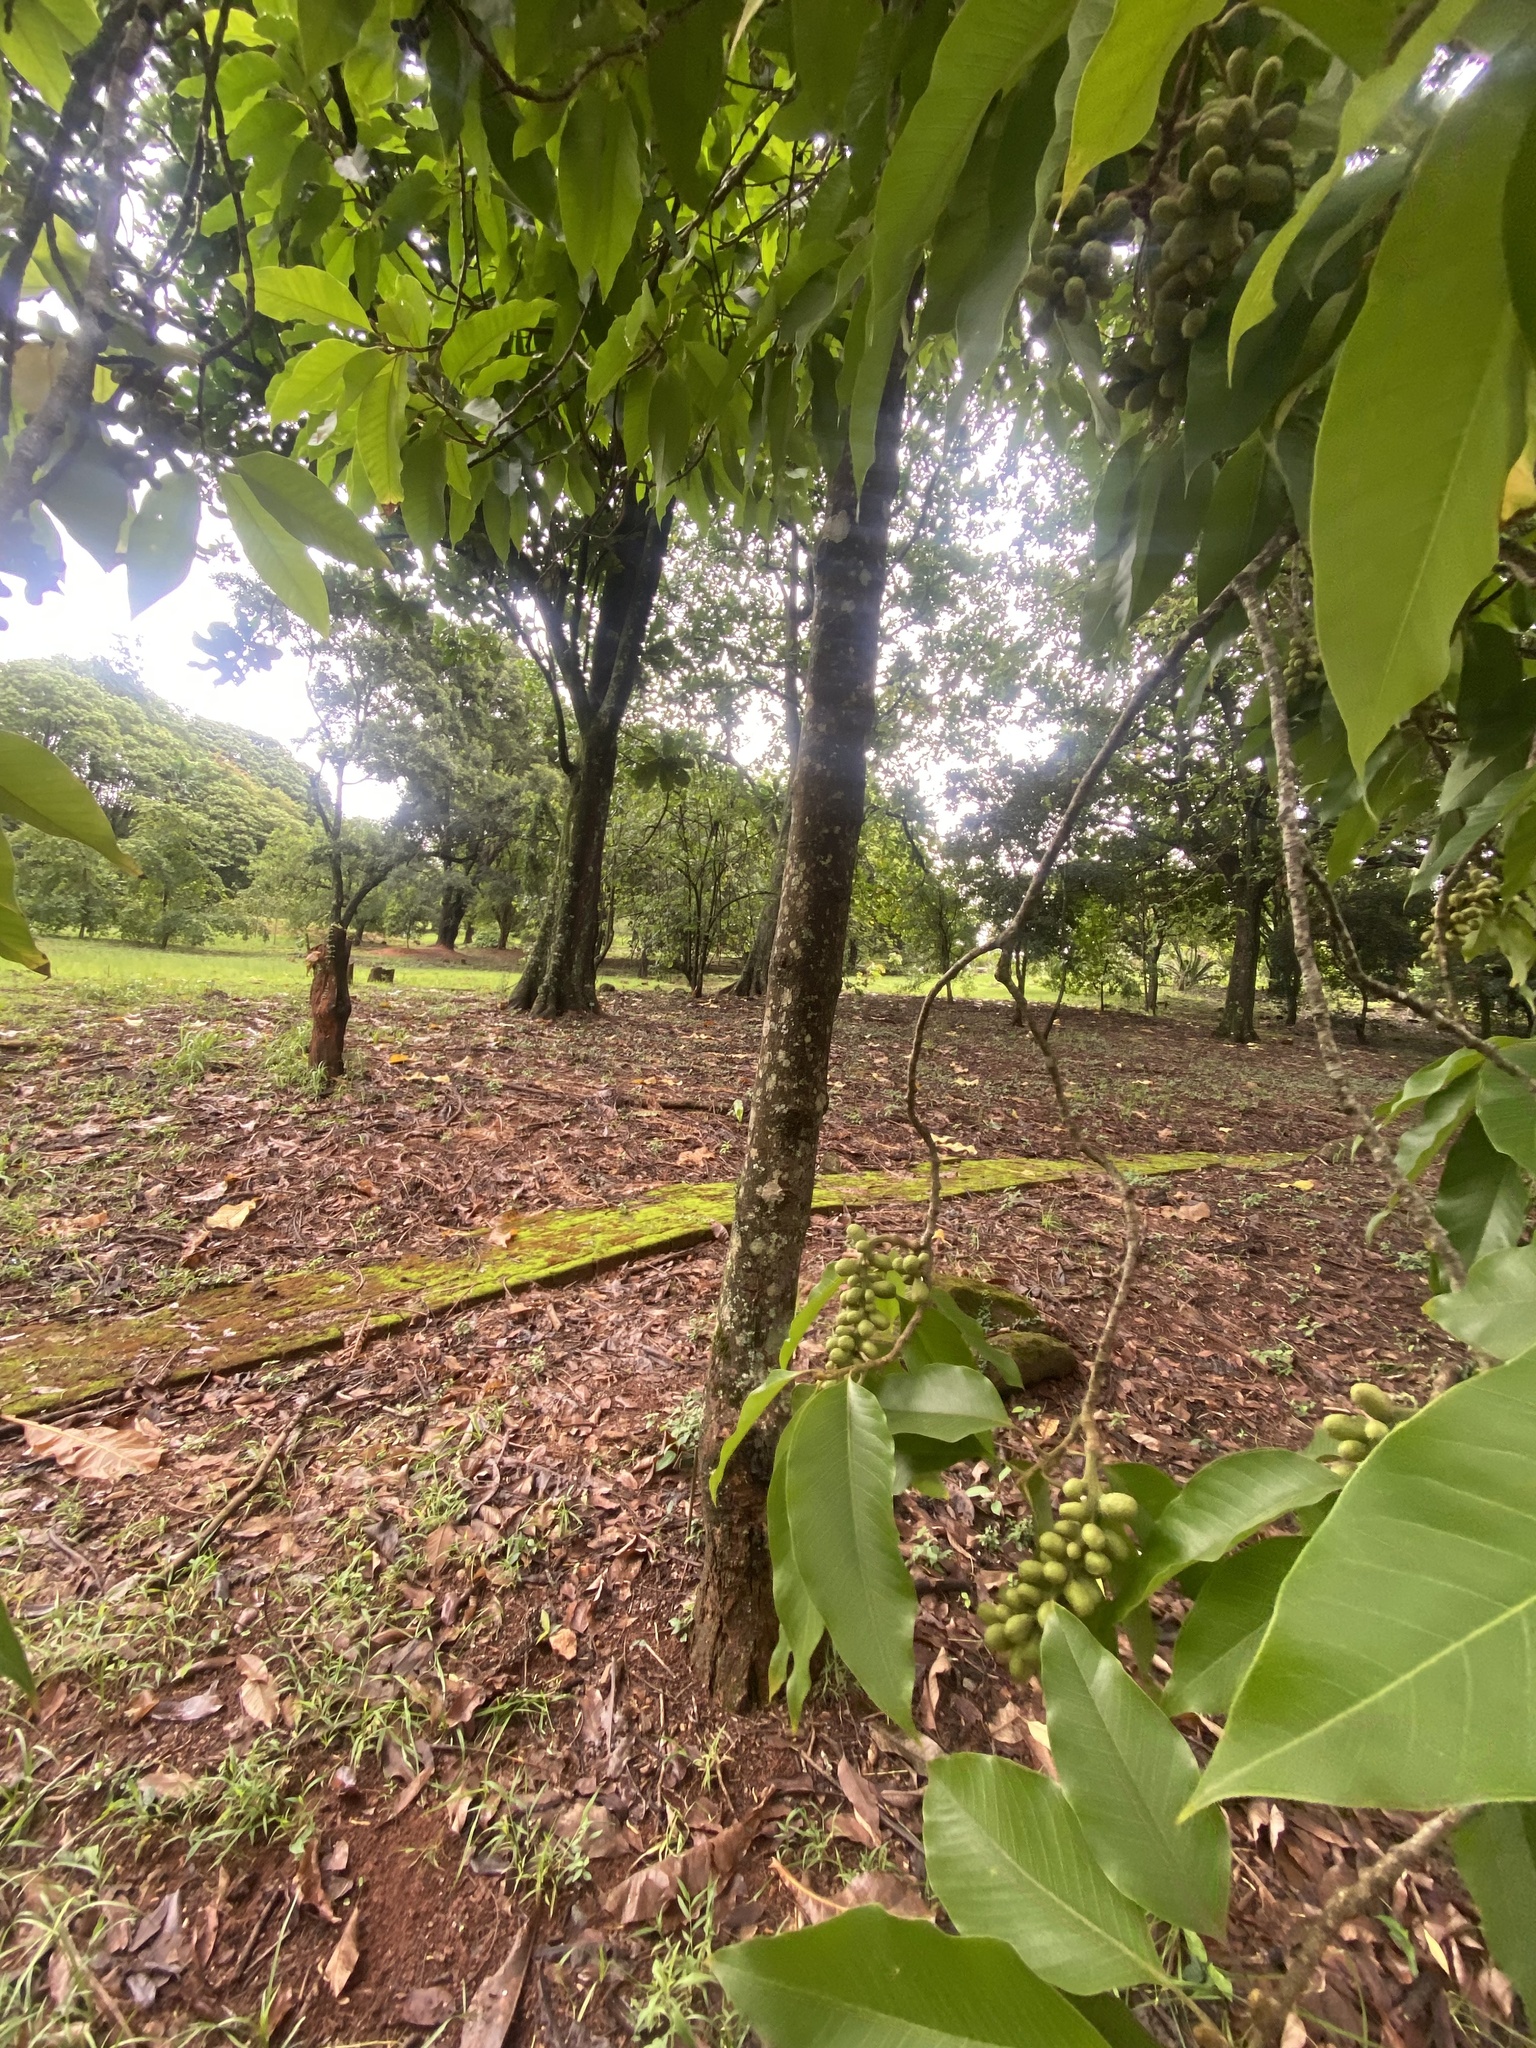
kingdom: Plantae
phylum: Tracheophyta
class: Magnoliopsida
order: Magnoliales
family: Magnoliaceae
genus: Magnolia
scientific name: Magnolia champaca
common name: Champak
